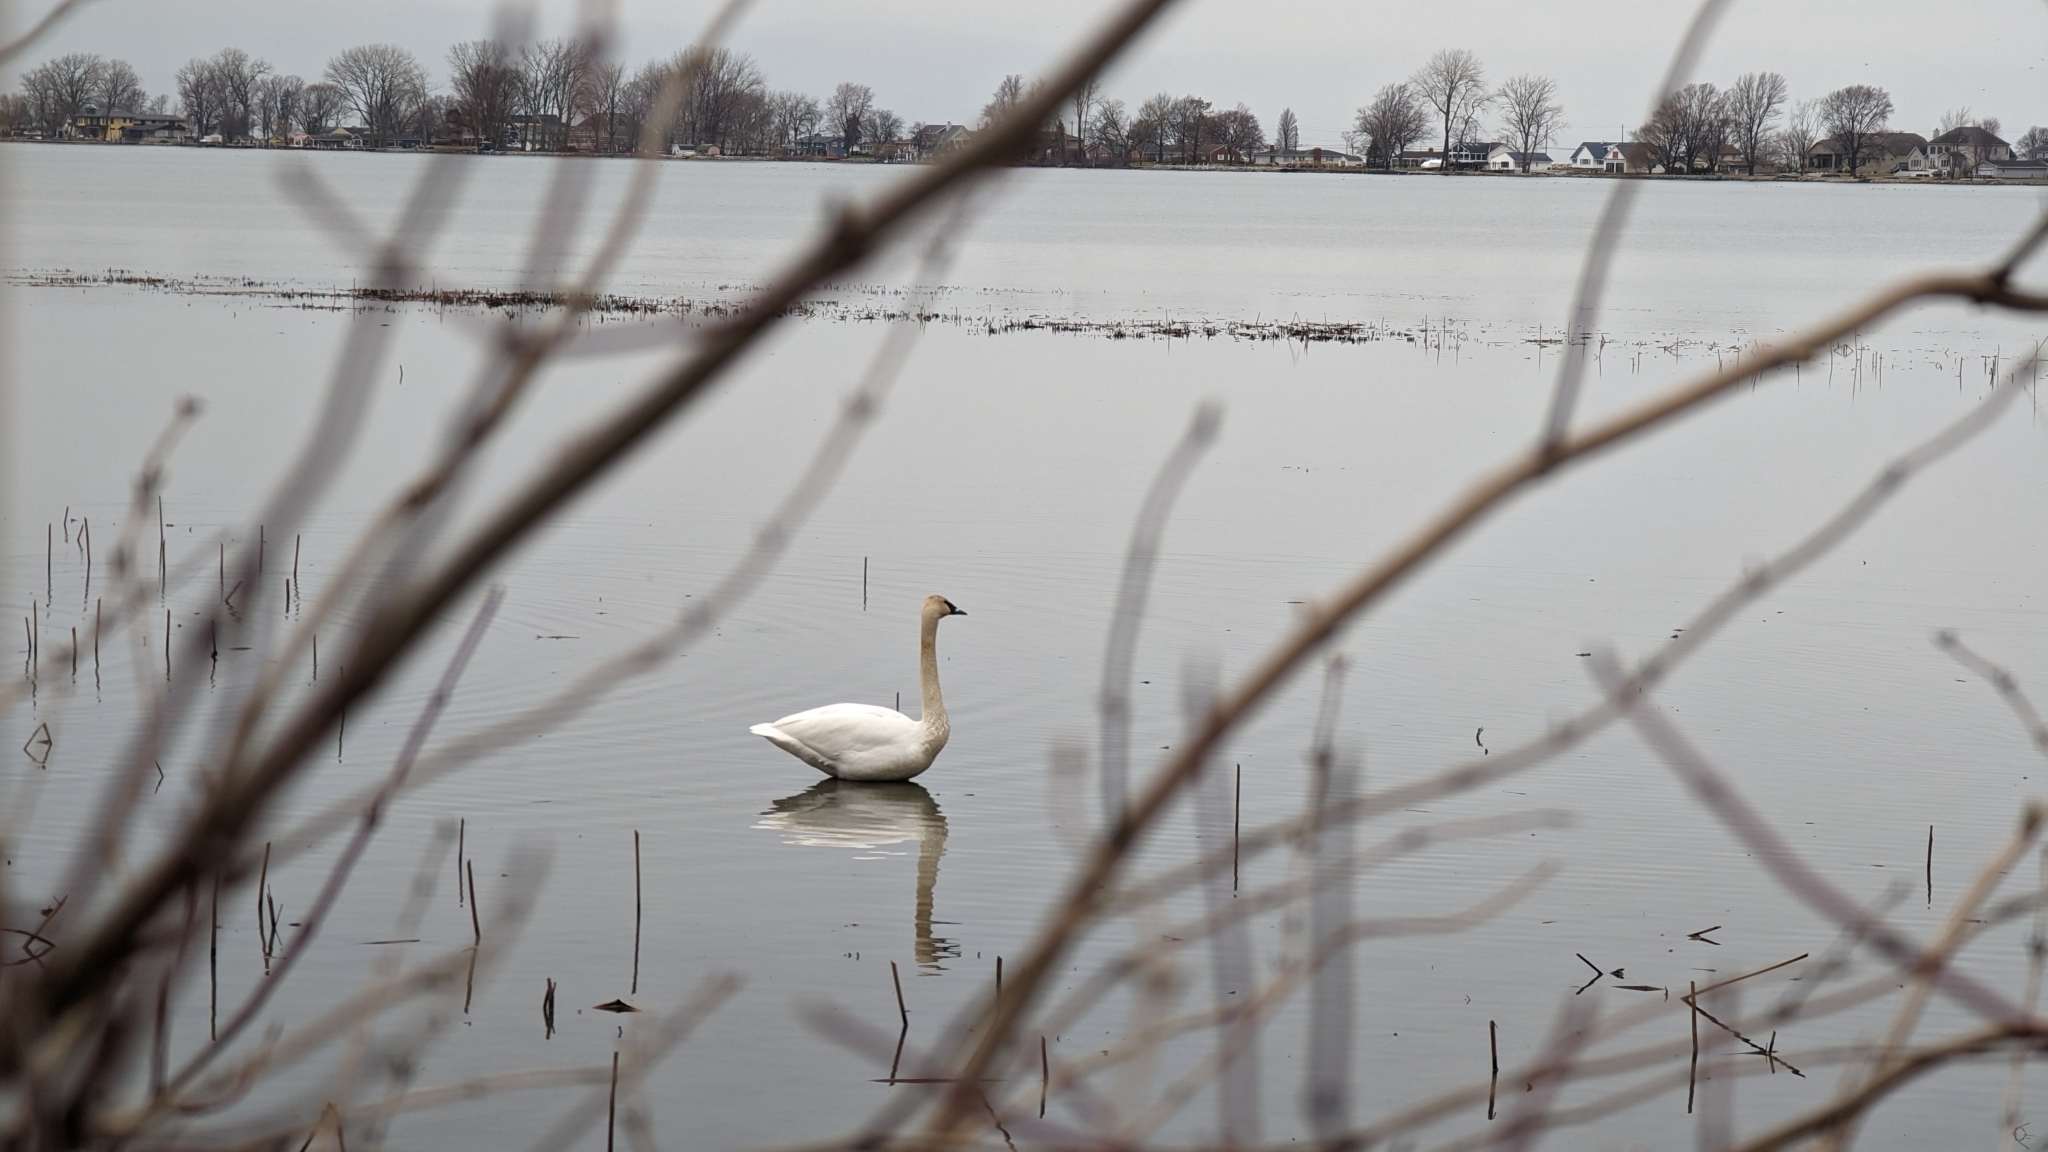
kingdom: Animalia
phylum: Chordata
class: Aves
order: Anseriformes
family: Anatidae
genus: Cygnus
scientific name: Cygnus buccinator
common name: Trumpeter swan
